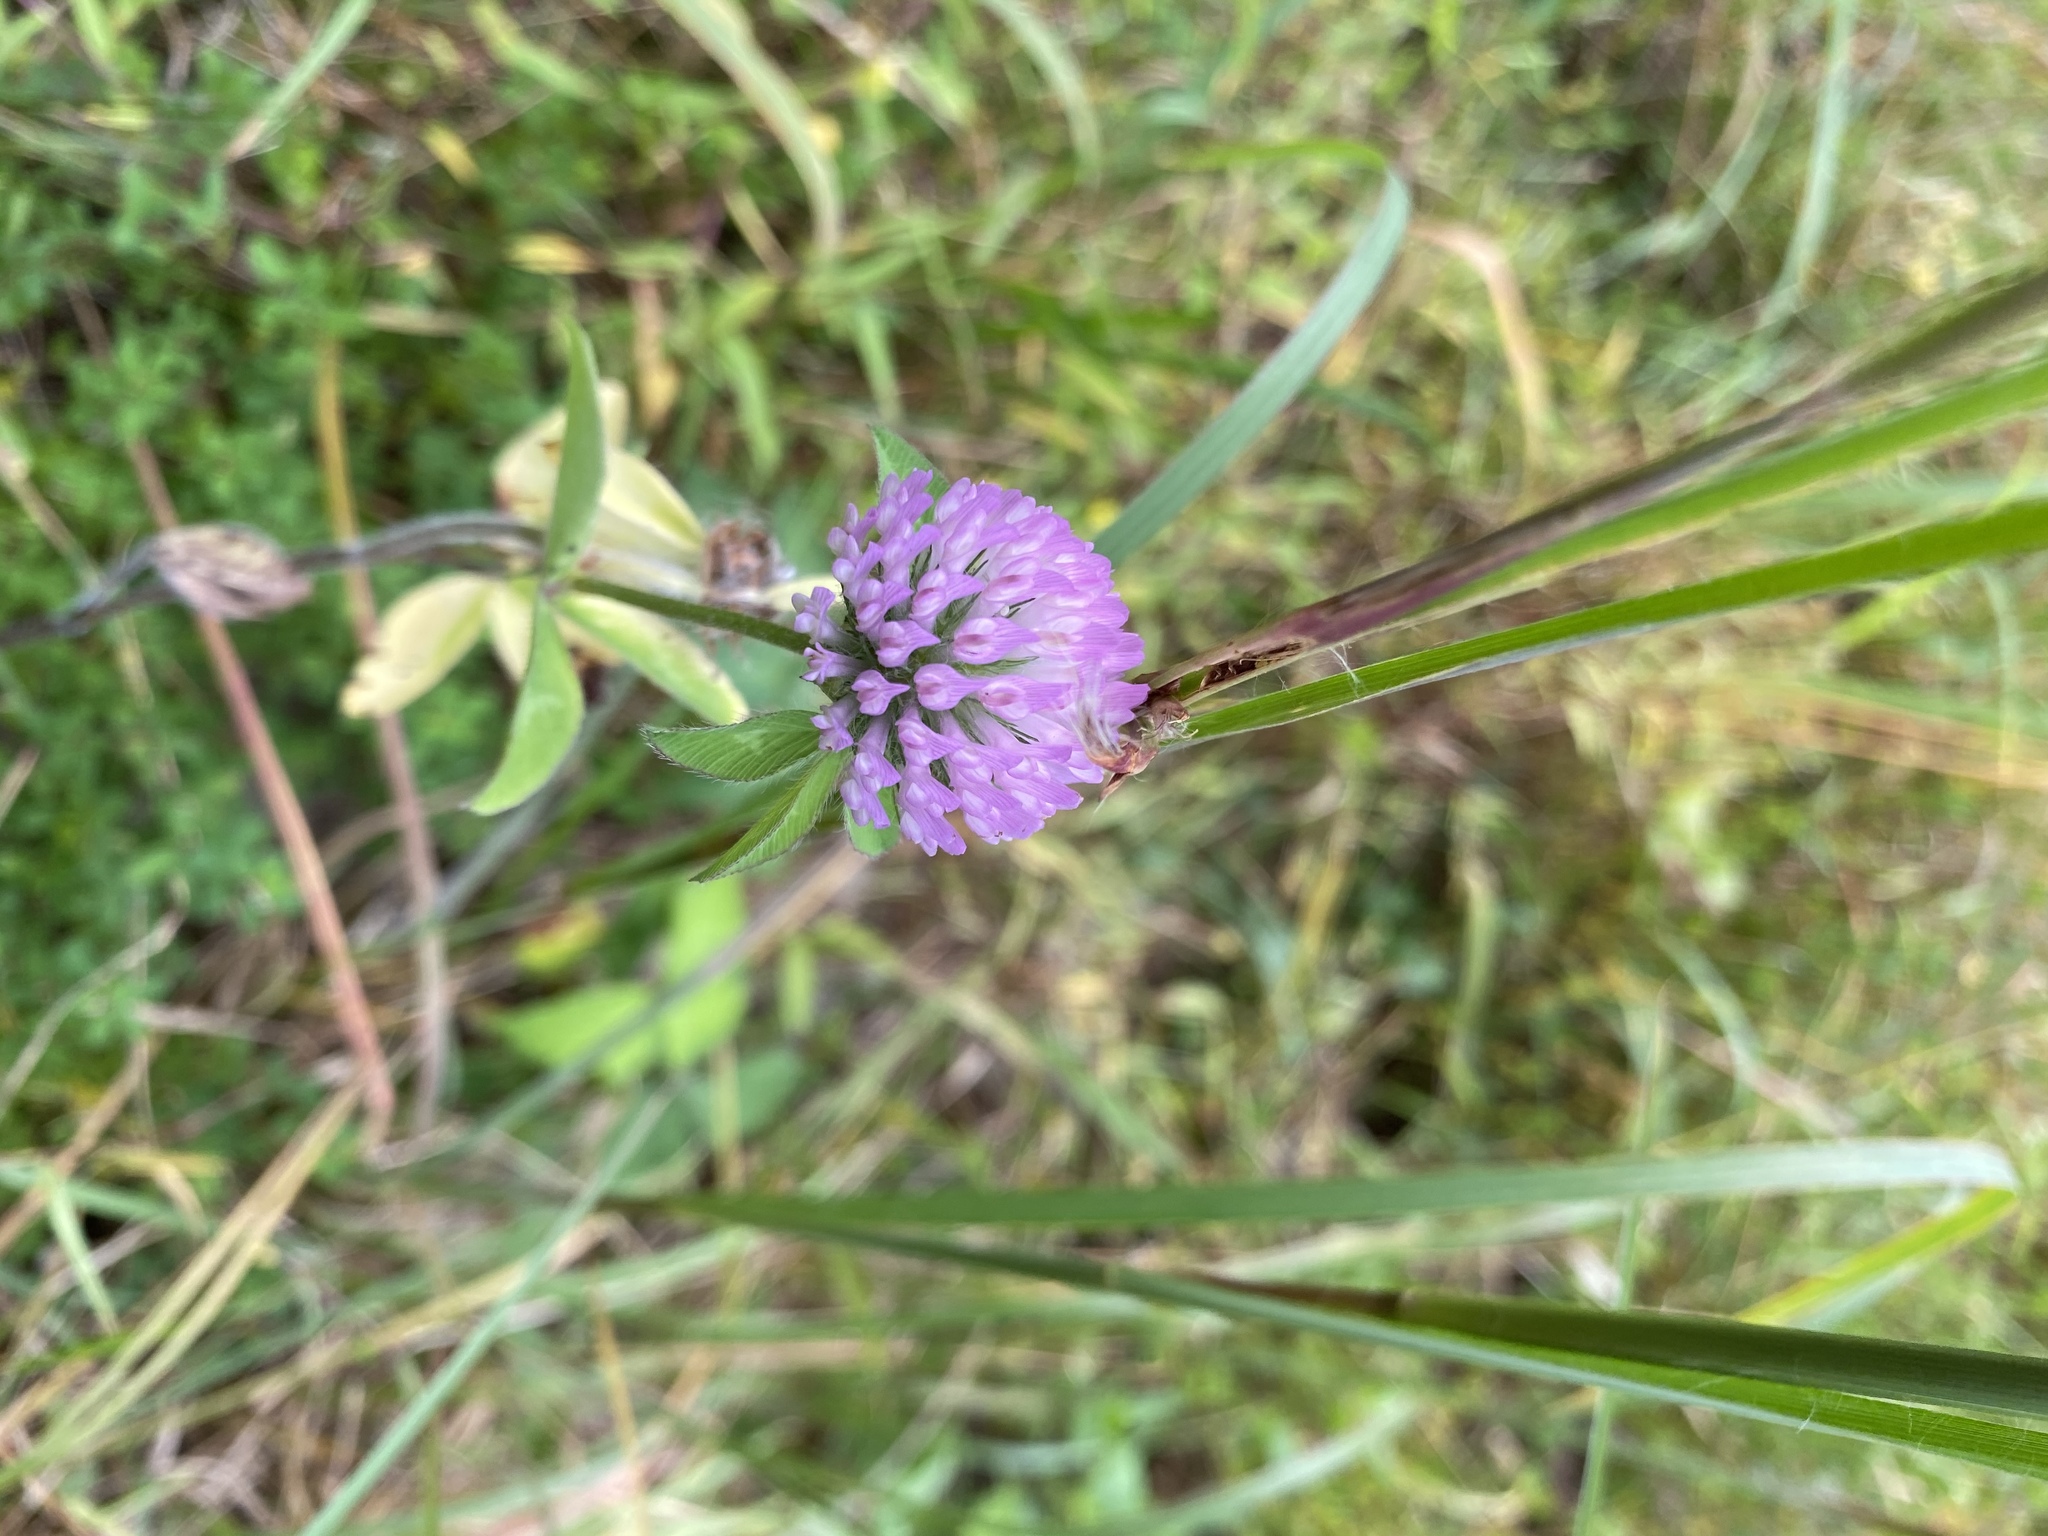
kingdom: Plantae
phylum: Tracheophyta
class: Magnoliopsida
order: Fabales
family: Fabaceae
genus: Trifolium
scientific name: Trifolium pratense
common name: Red clover
